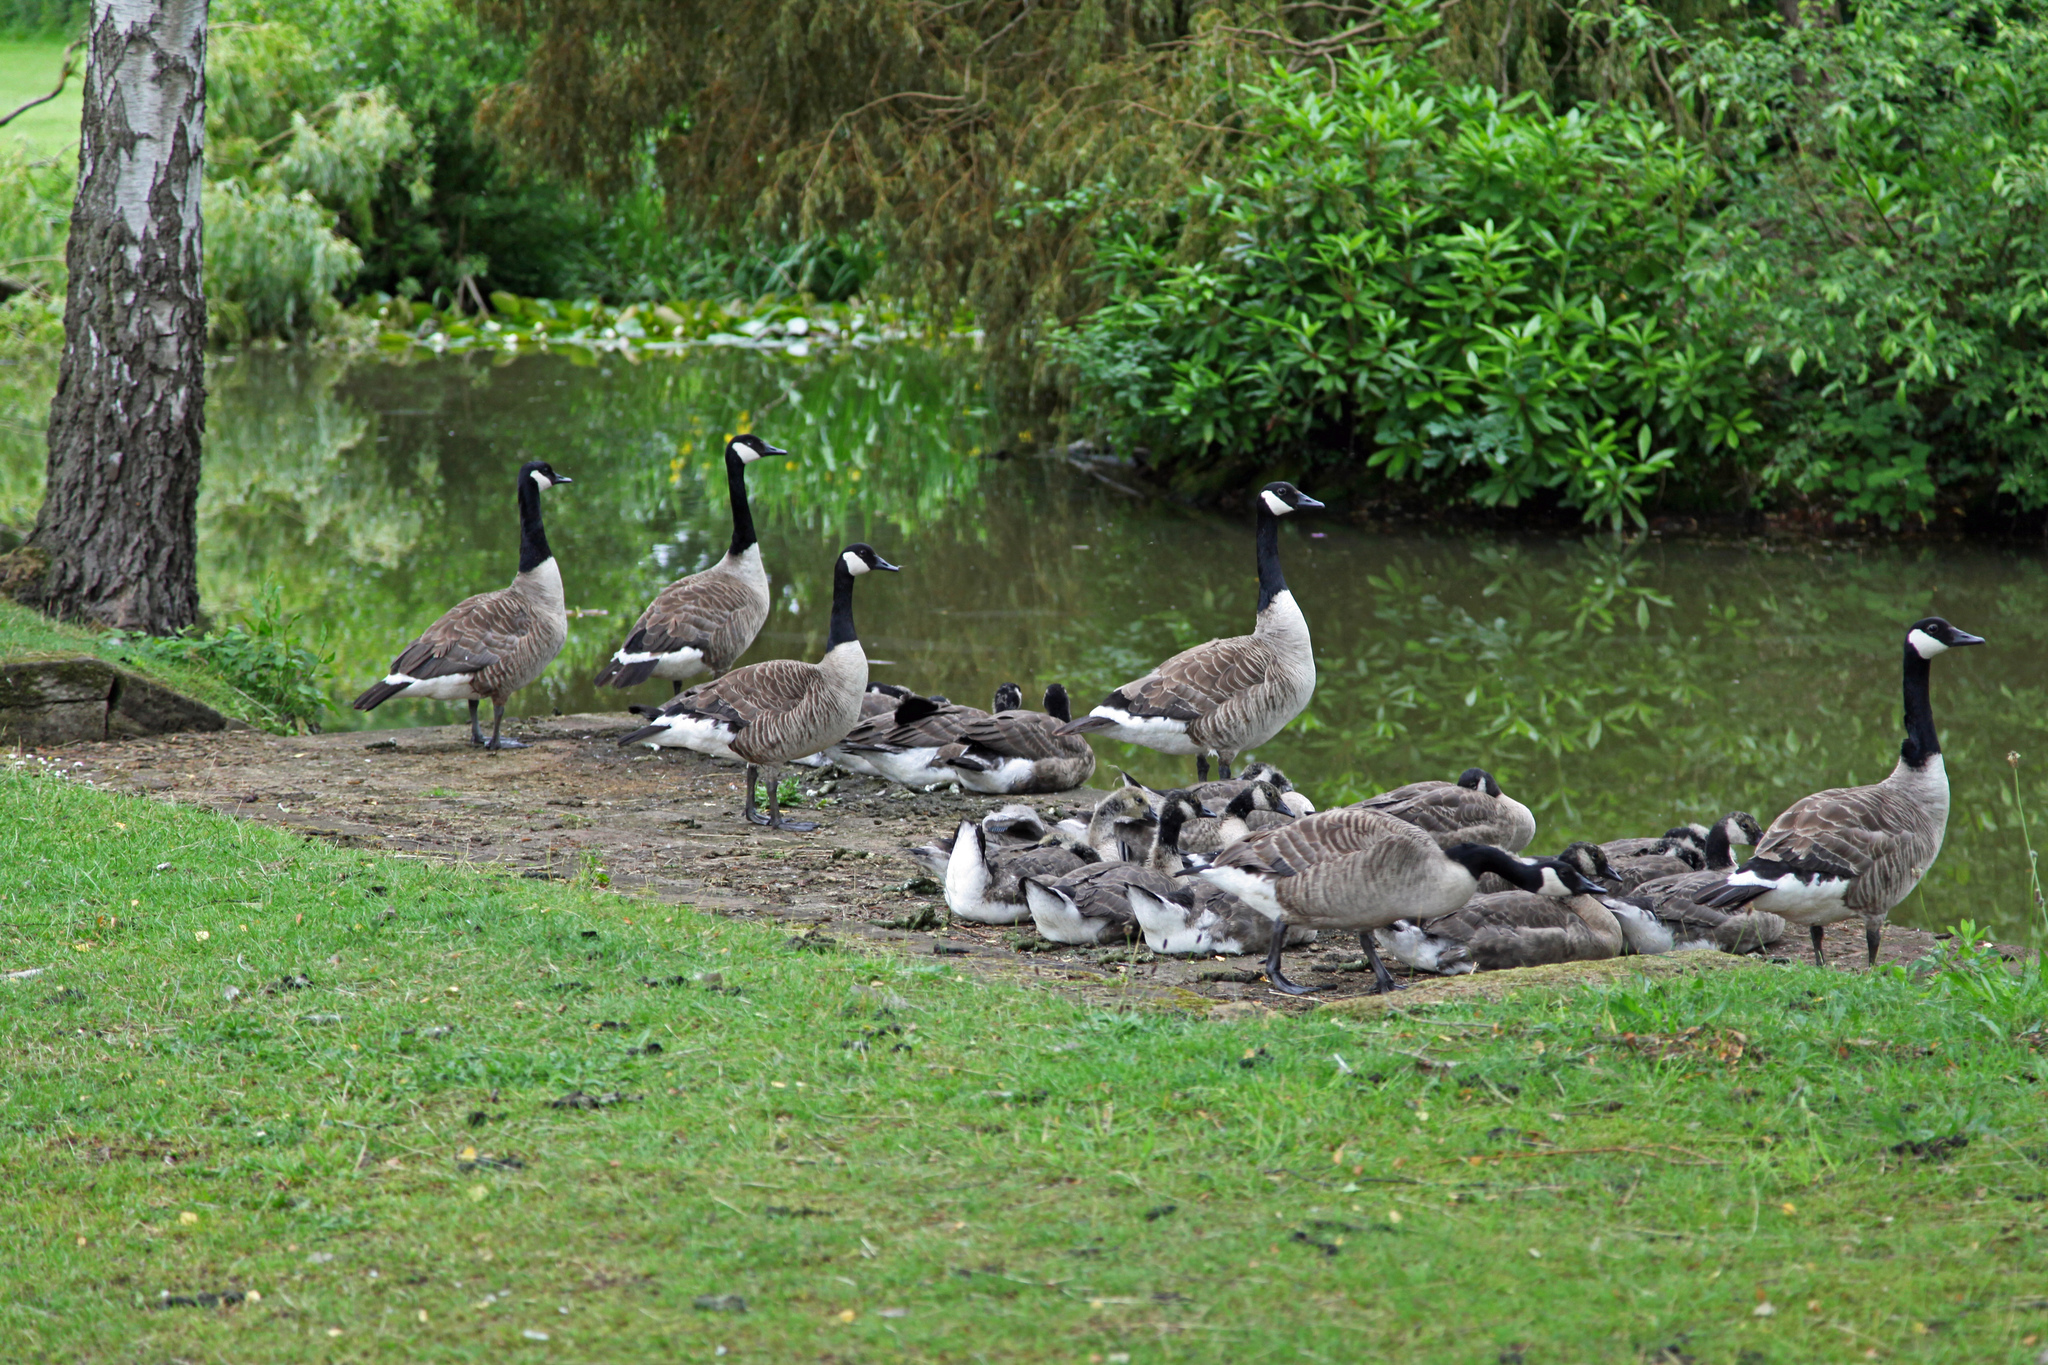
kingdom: Animalia
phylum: Chordata
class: Aves
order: Anseriformes
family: Anatidae
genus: Branta
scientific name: Branta canadensis
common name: Canada goose
